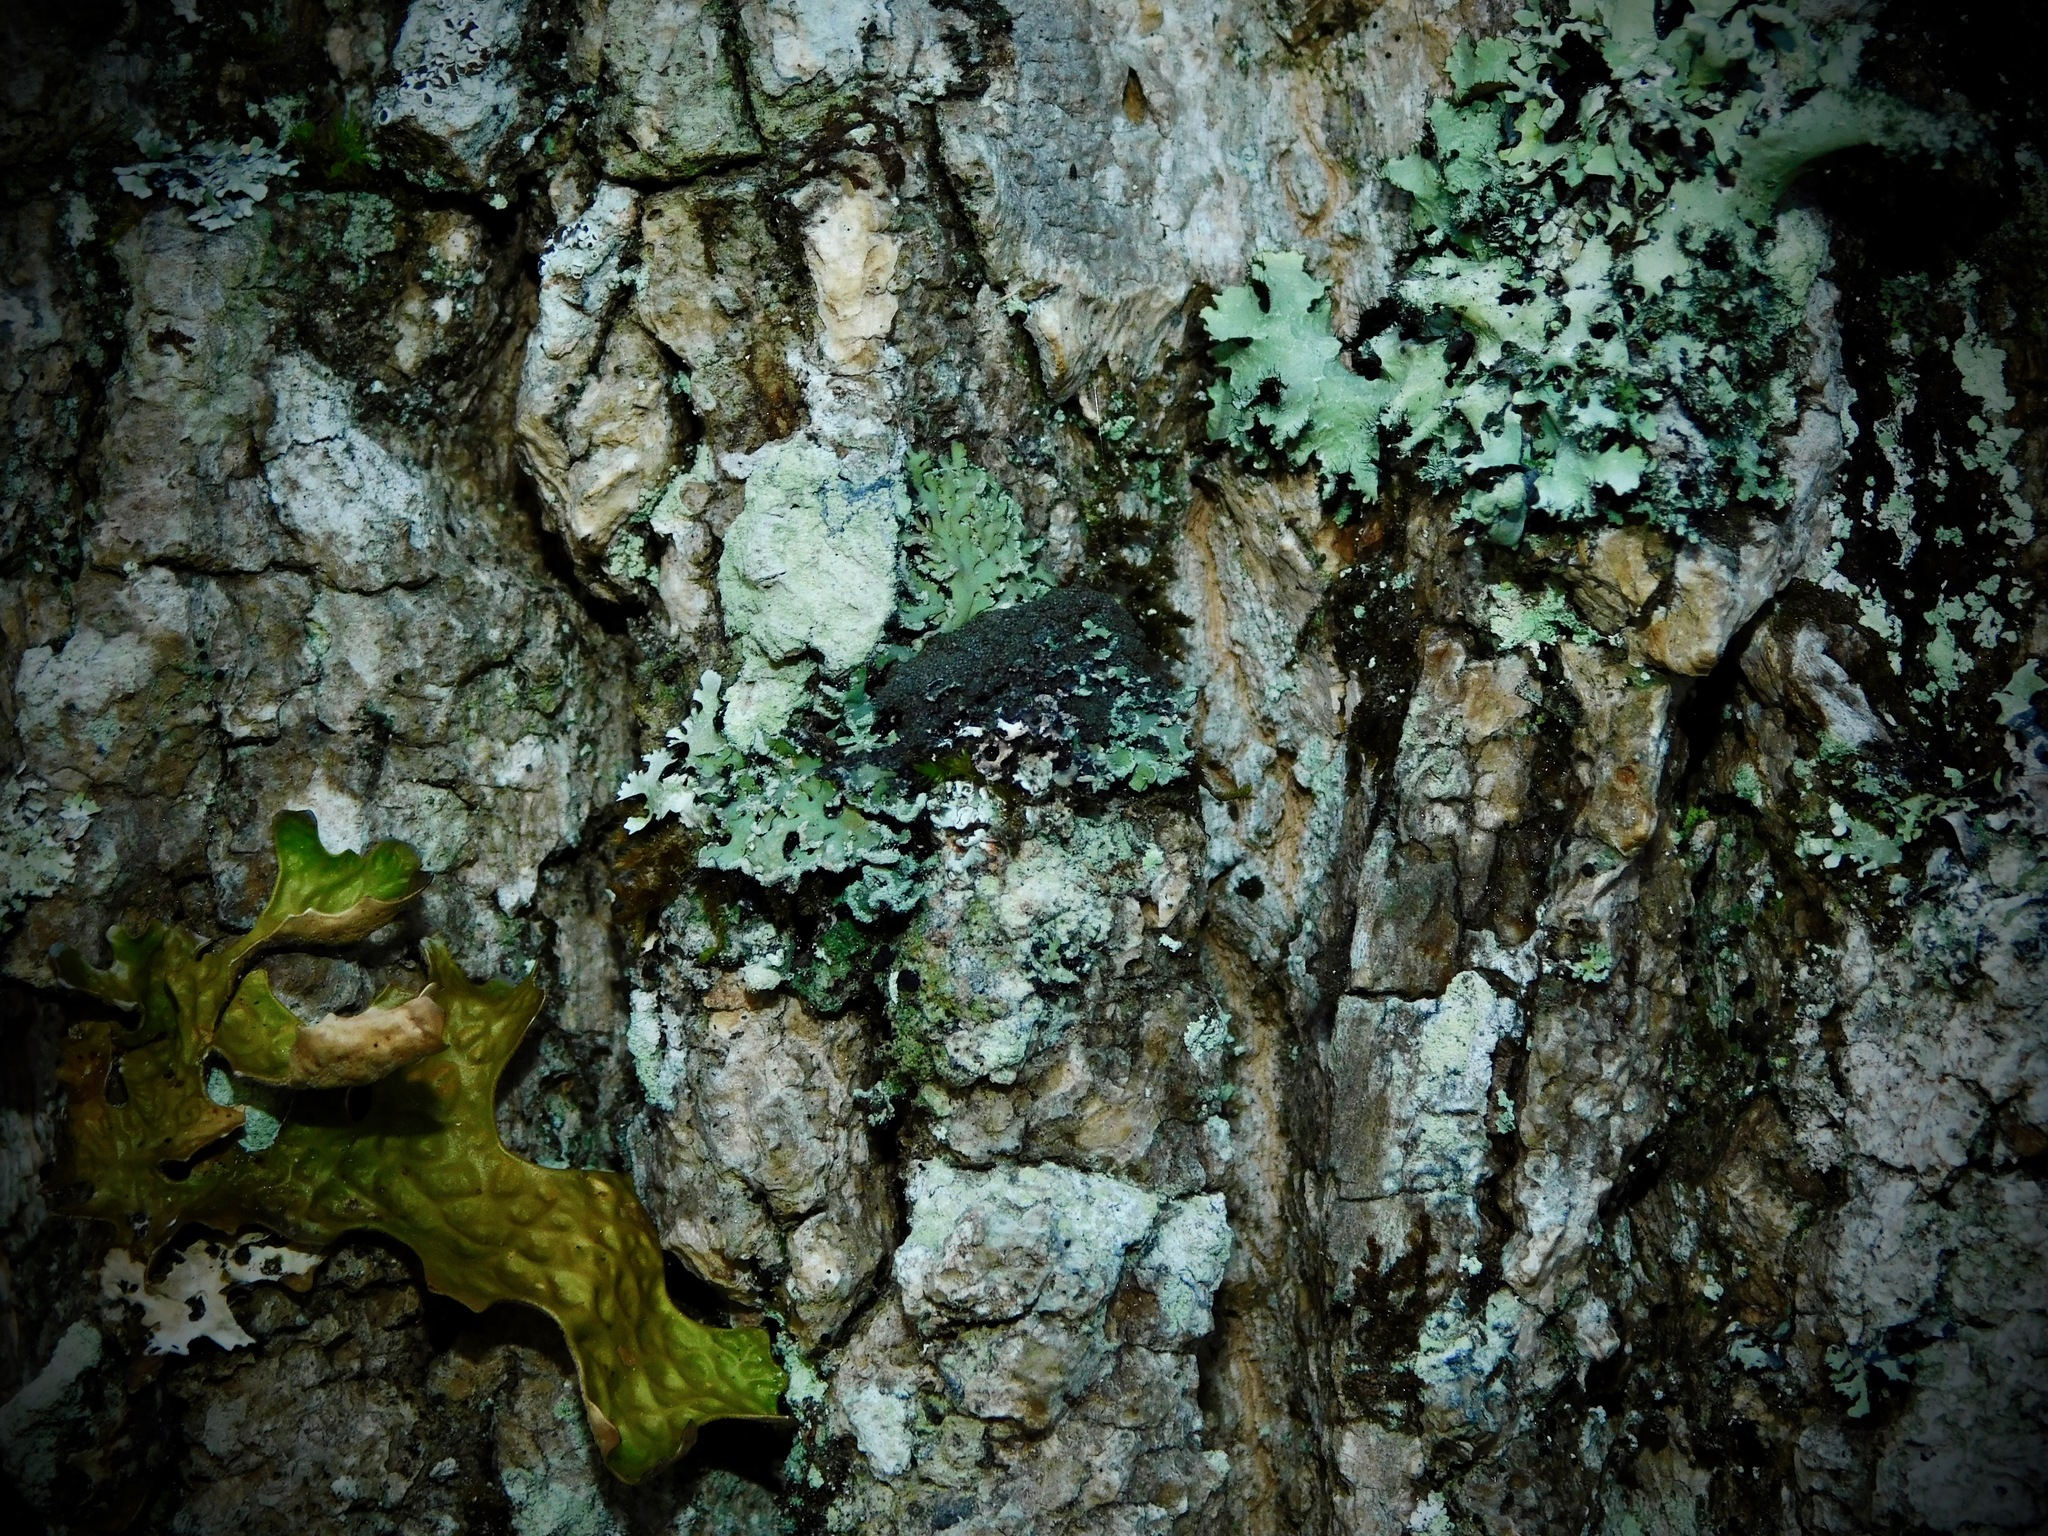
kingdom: Fungi
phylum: Ascomycota
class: Lecanoromycetes
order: Caliciales
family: Physciaceae
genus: Polyblastidium
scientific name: Polyblastidium neglectum
